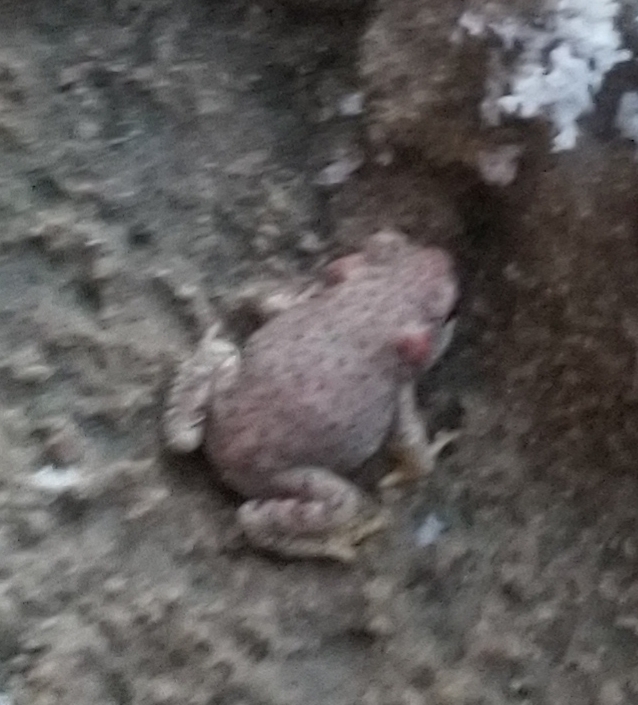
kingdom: Animalia
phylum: Chordata
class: Amphibia
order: Anura
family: Bufonidae
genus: Anaxyrus
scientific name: Anaxyrus punctatus
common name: Red-spotted toad
